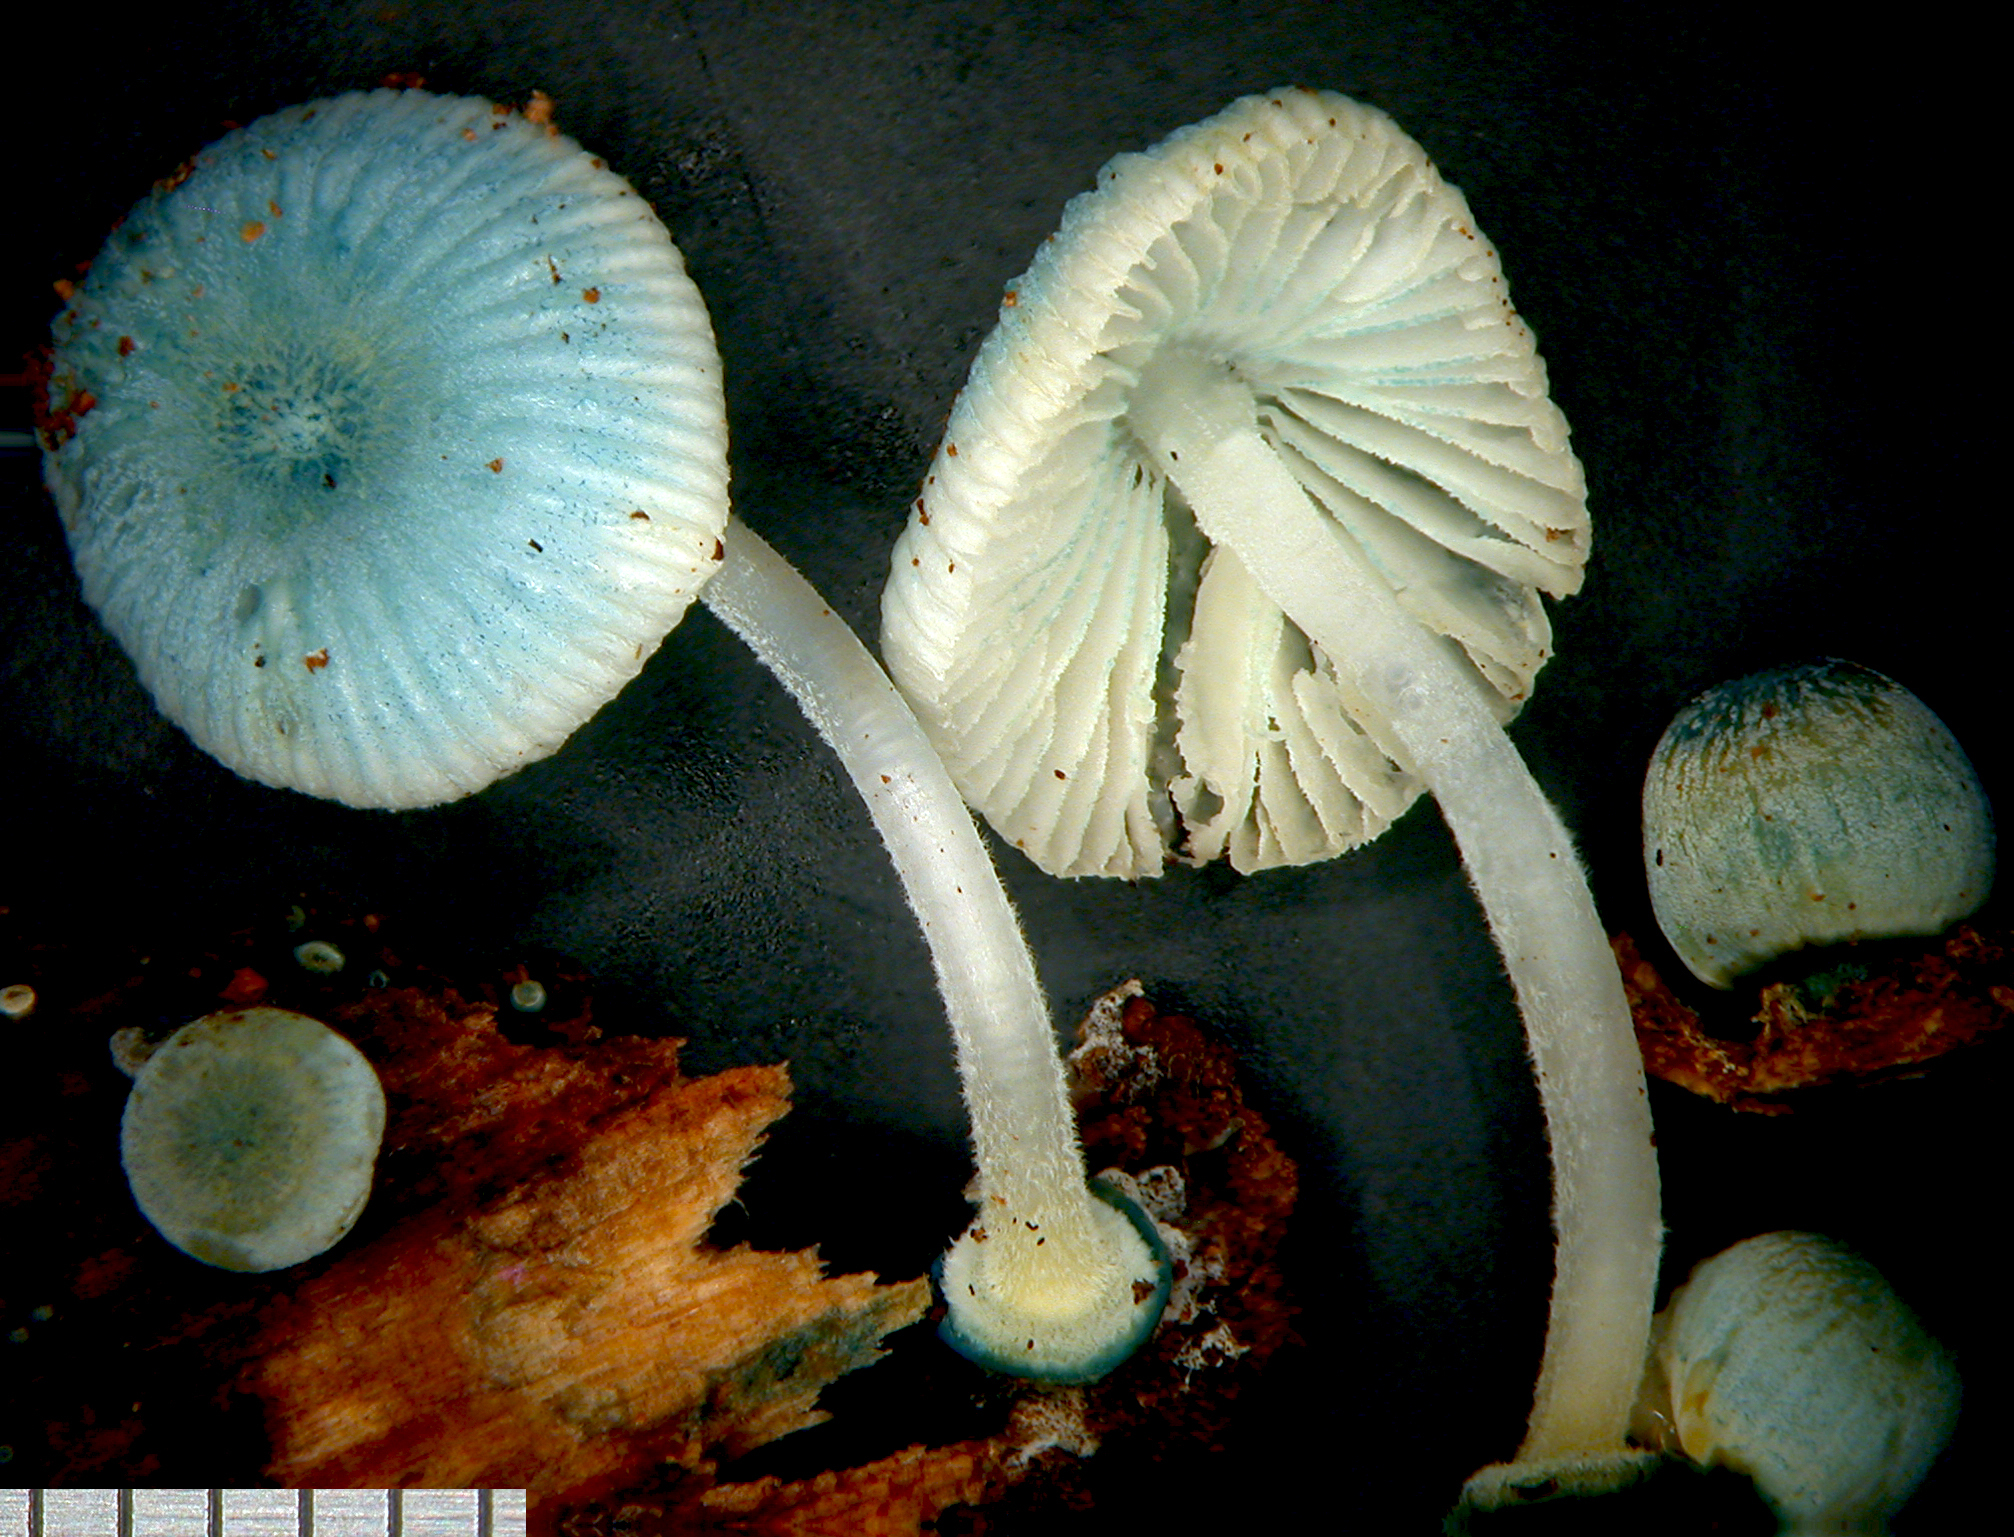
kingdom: Fungi
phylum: Basidiomycota
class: Agaricomycetes
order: Agaricales
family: Mycenaceae
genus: Mycena
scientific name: Mycena interrupta
